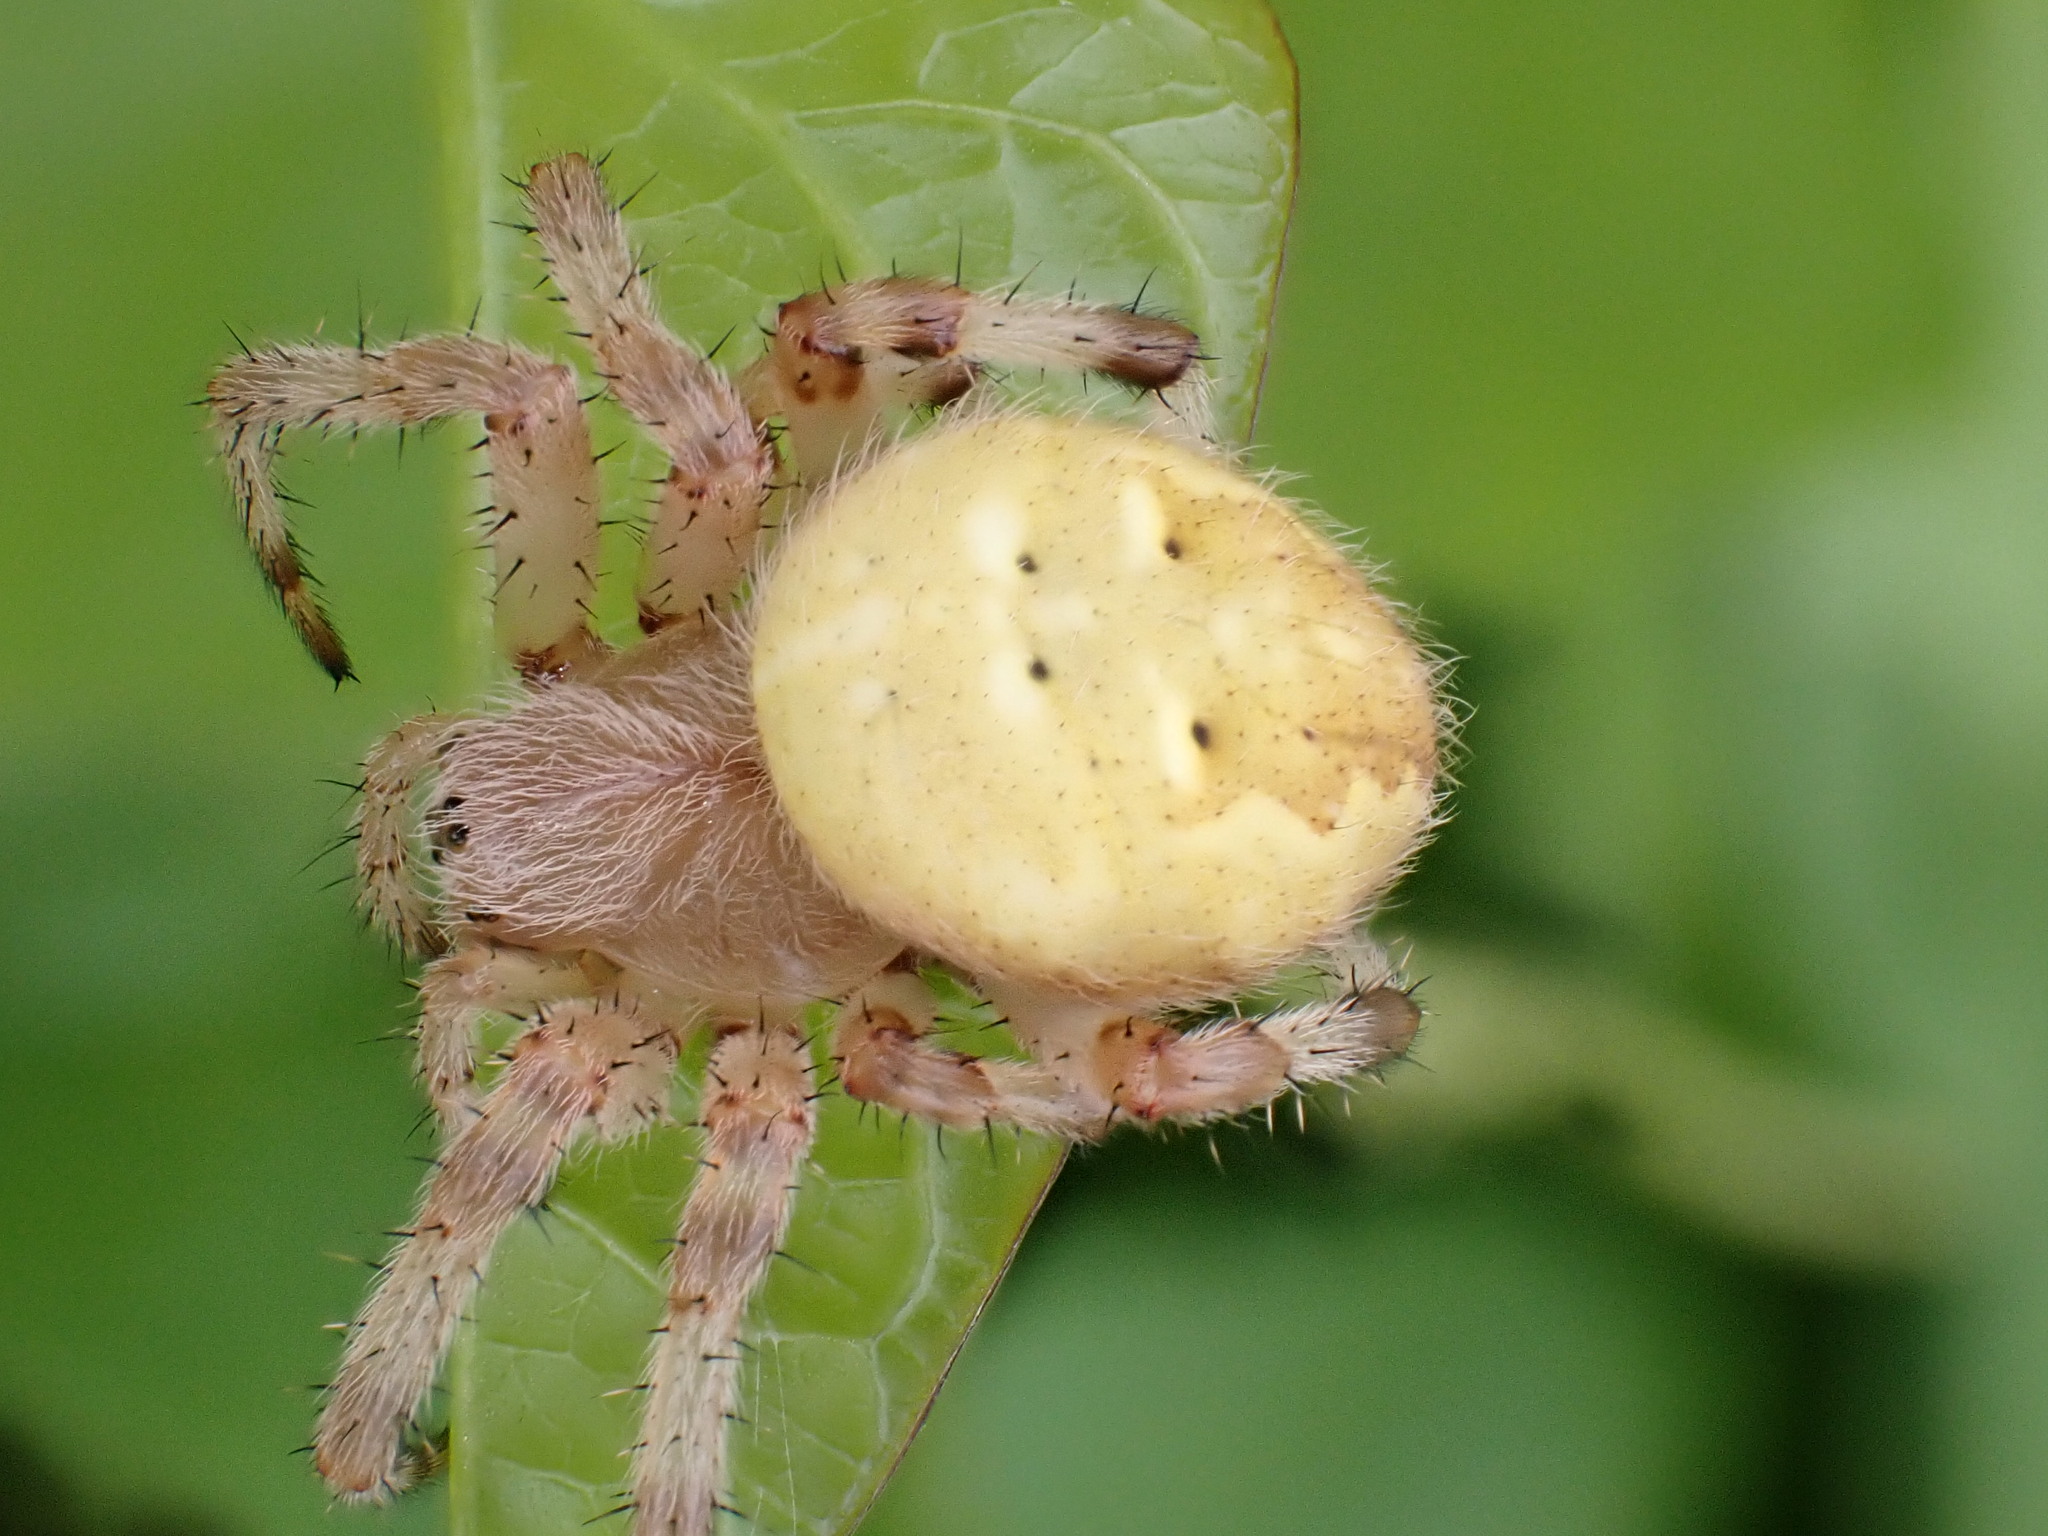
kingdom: Animalia
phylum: Arthropoda
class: Arachnida
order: Araneae
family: Araneidae
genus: Araneus
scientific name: Araneus quadratus
